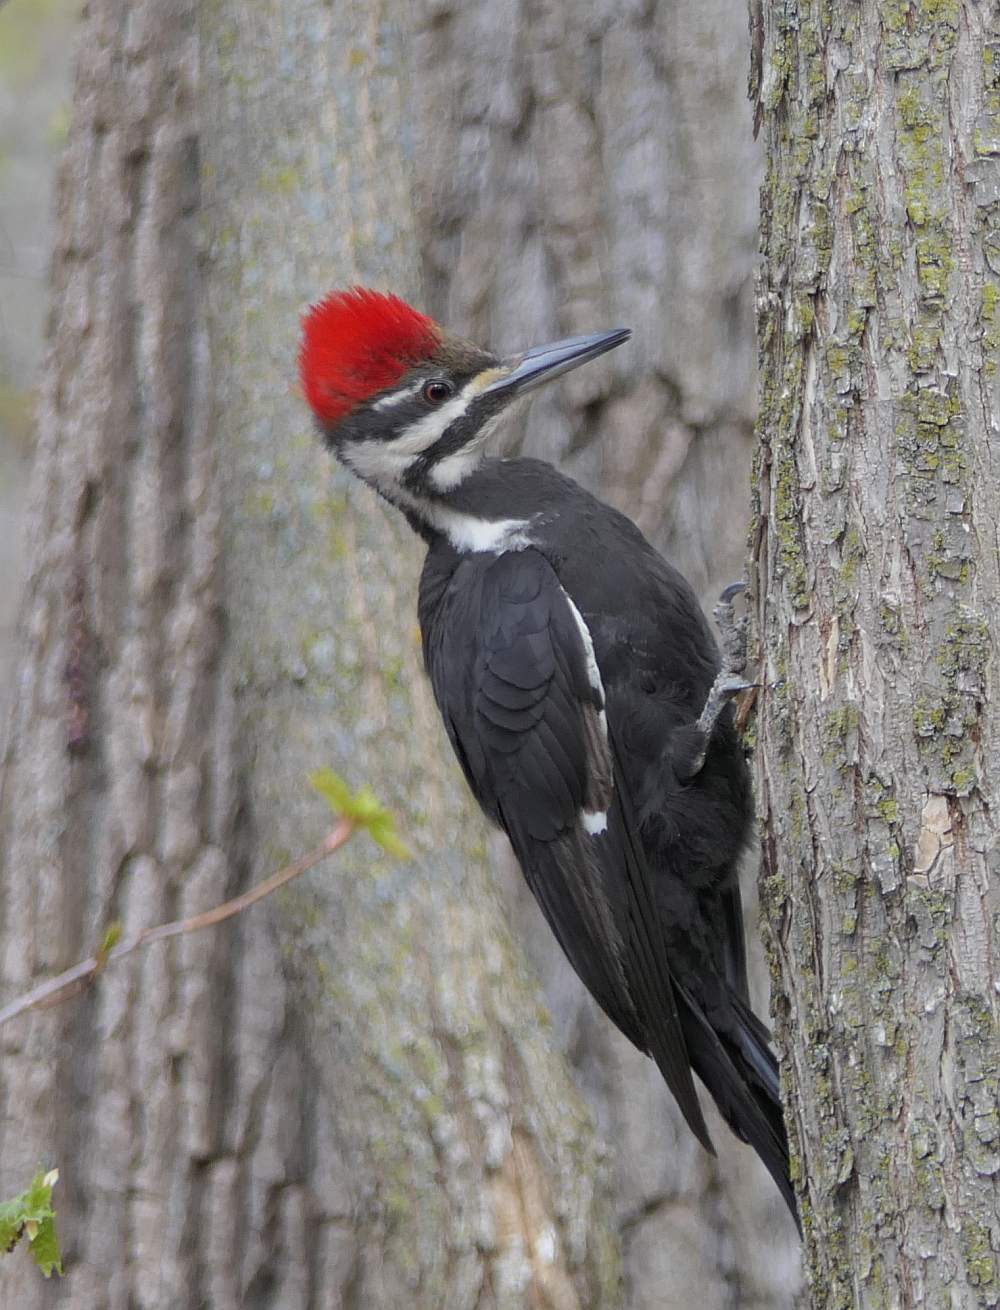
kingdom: Animalia
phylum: Chordata
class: Aves
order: Piciformes
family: Picidae
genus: Dryocopus
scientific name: Dryocopus pileatus
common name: Pileated woodpecker
